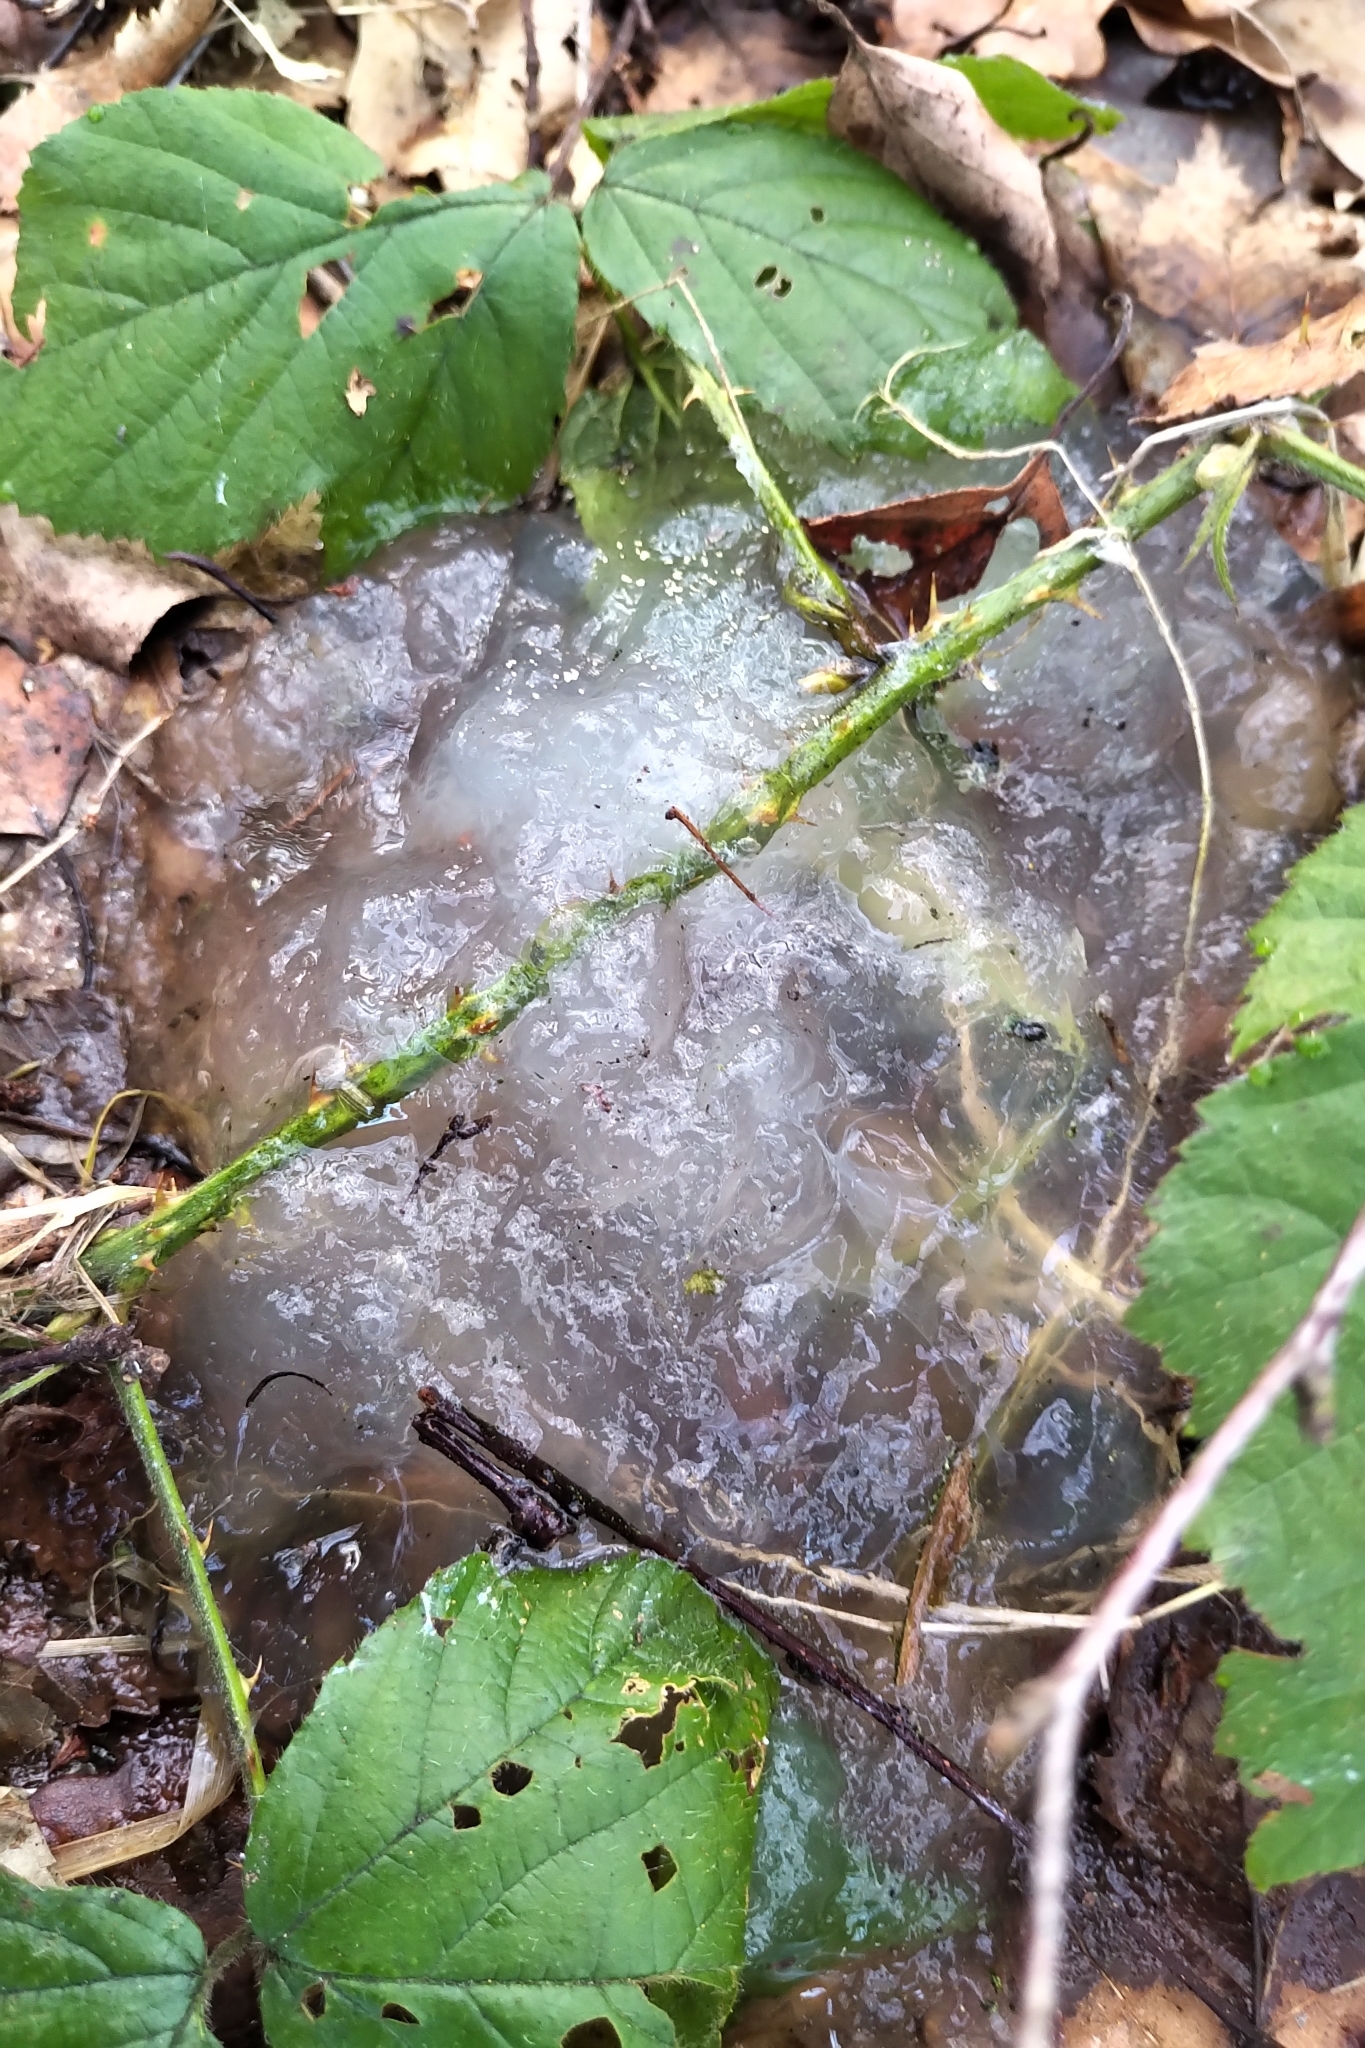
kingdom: Animalia
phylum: Chordata
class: Amphibia
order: Anura
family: Ranidae
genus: Rana
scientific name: Rana temporaria
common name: Common frog
